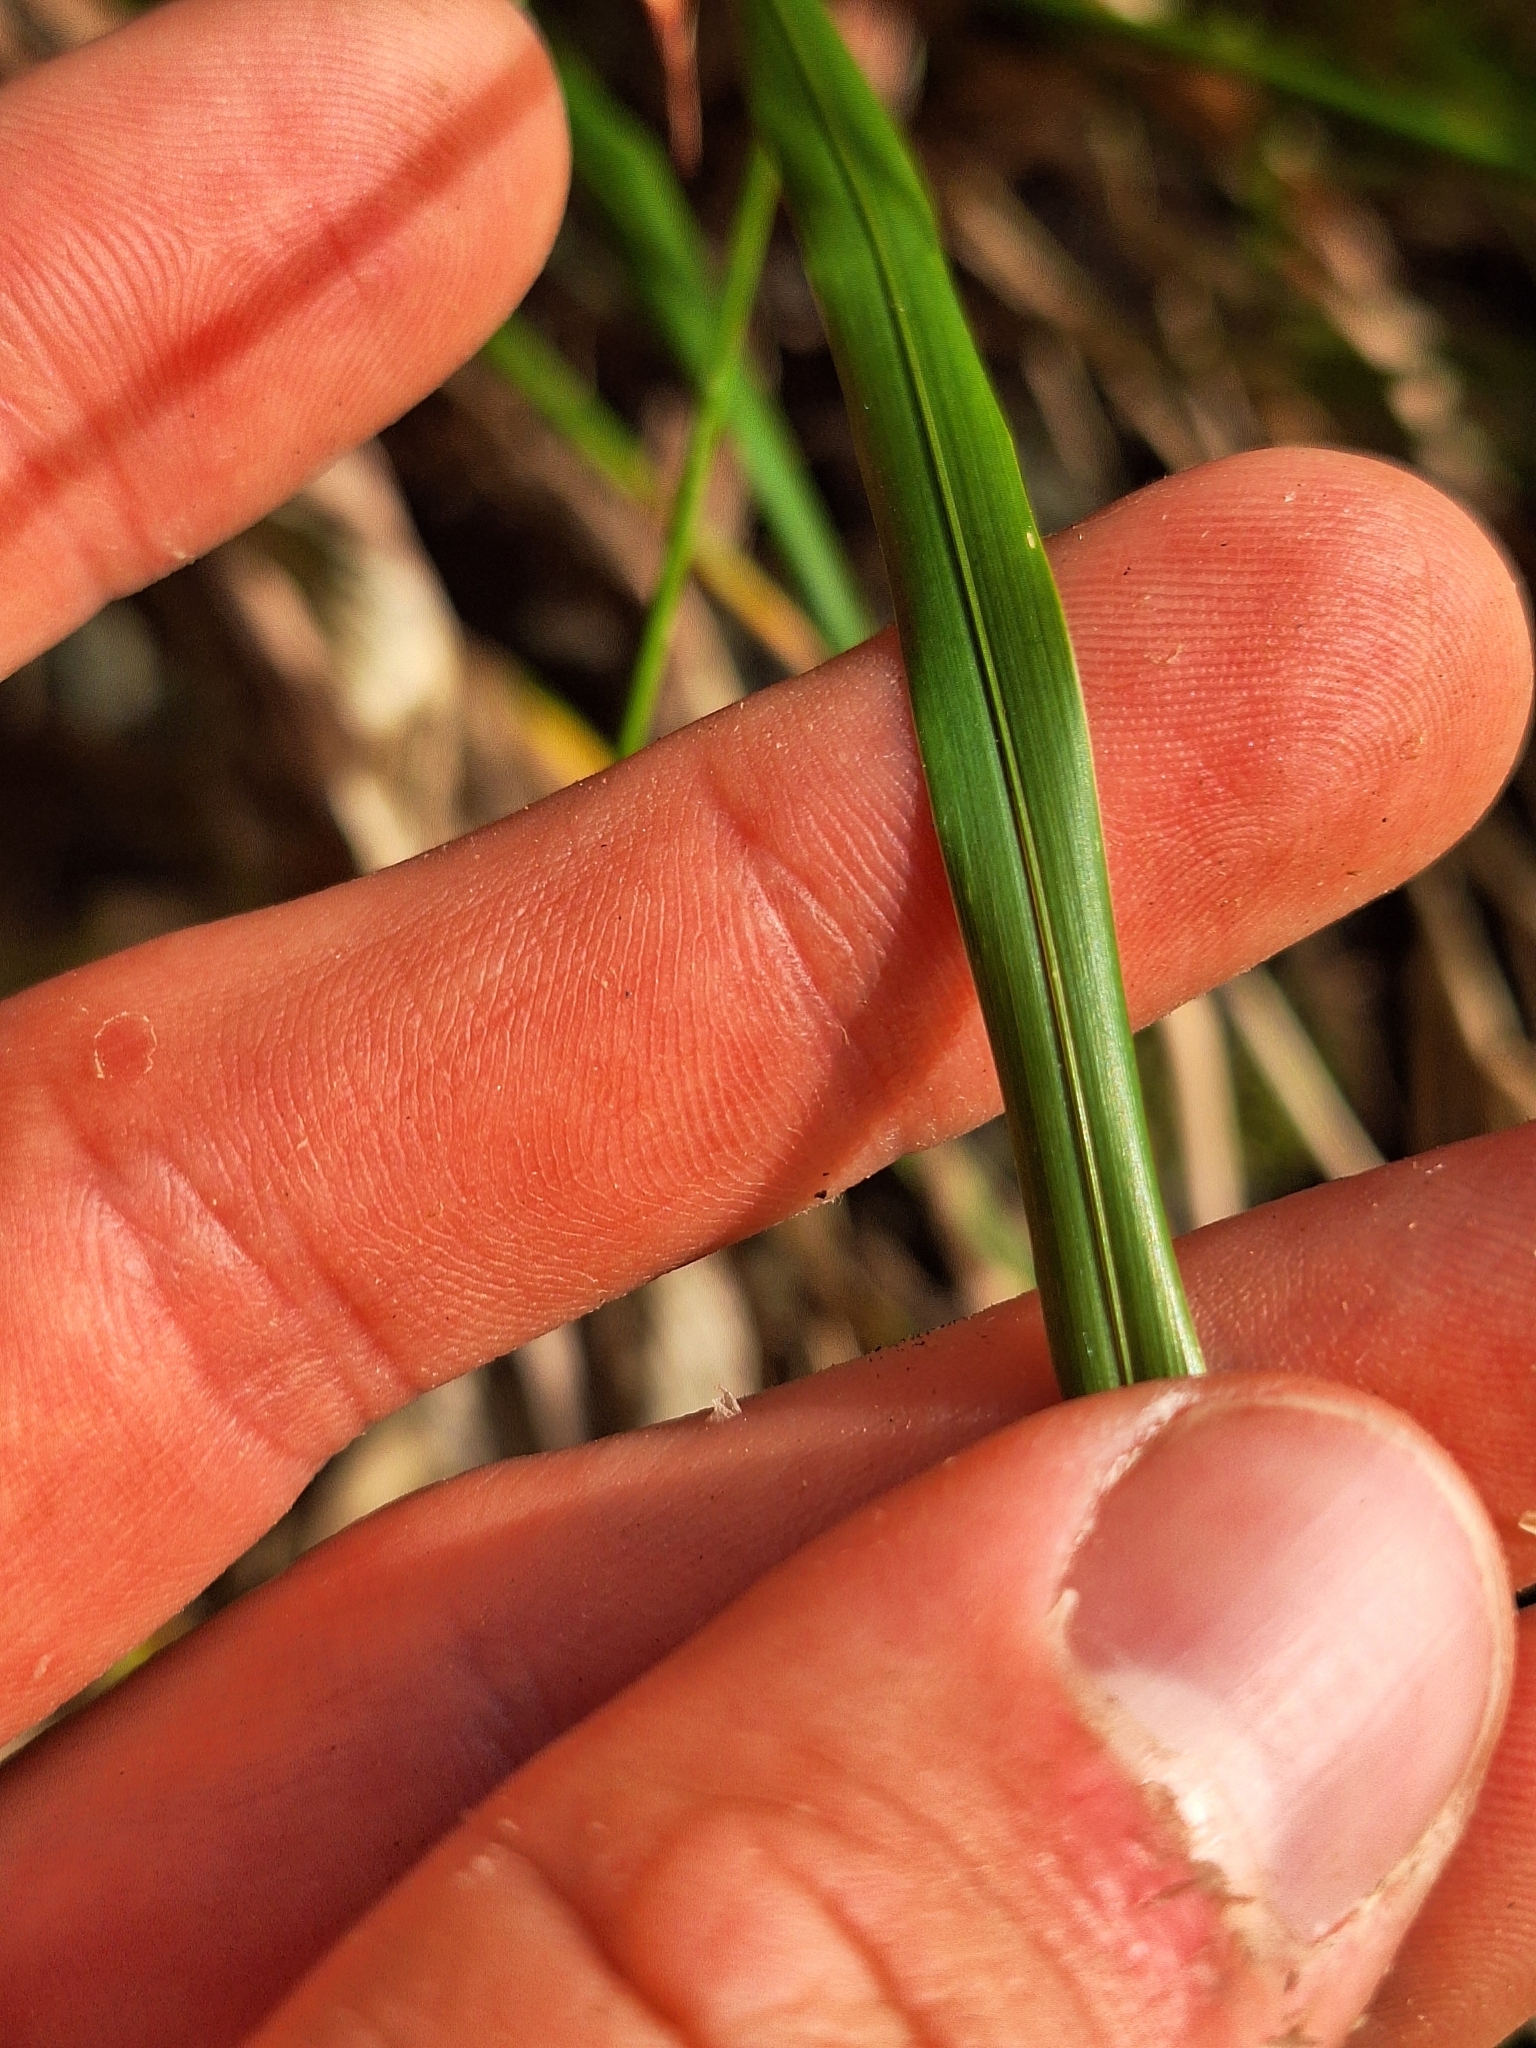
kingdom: Plantae
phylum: Tracheophyta
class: Liliopsida
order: Poales
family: Poaceae
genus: Poa
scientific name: Poa anceps
